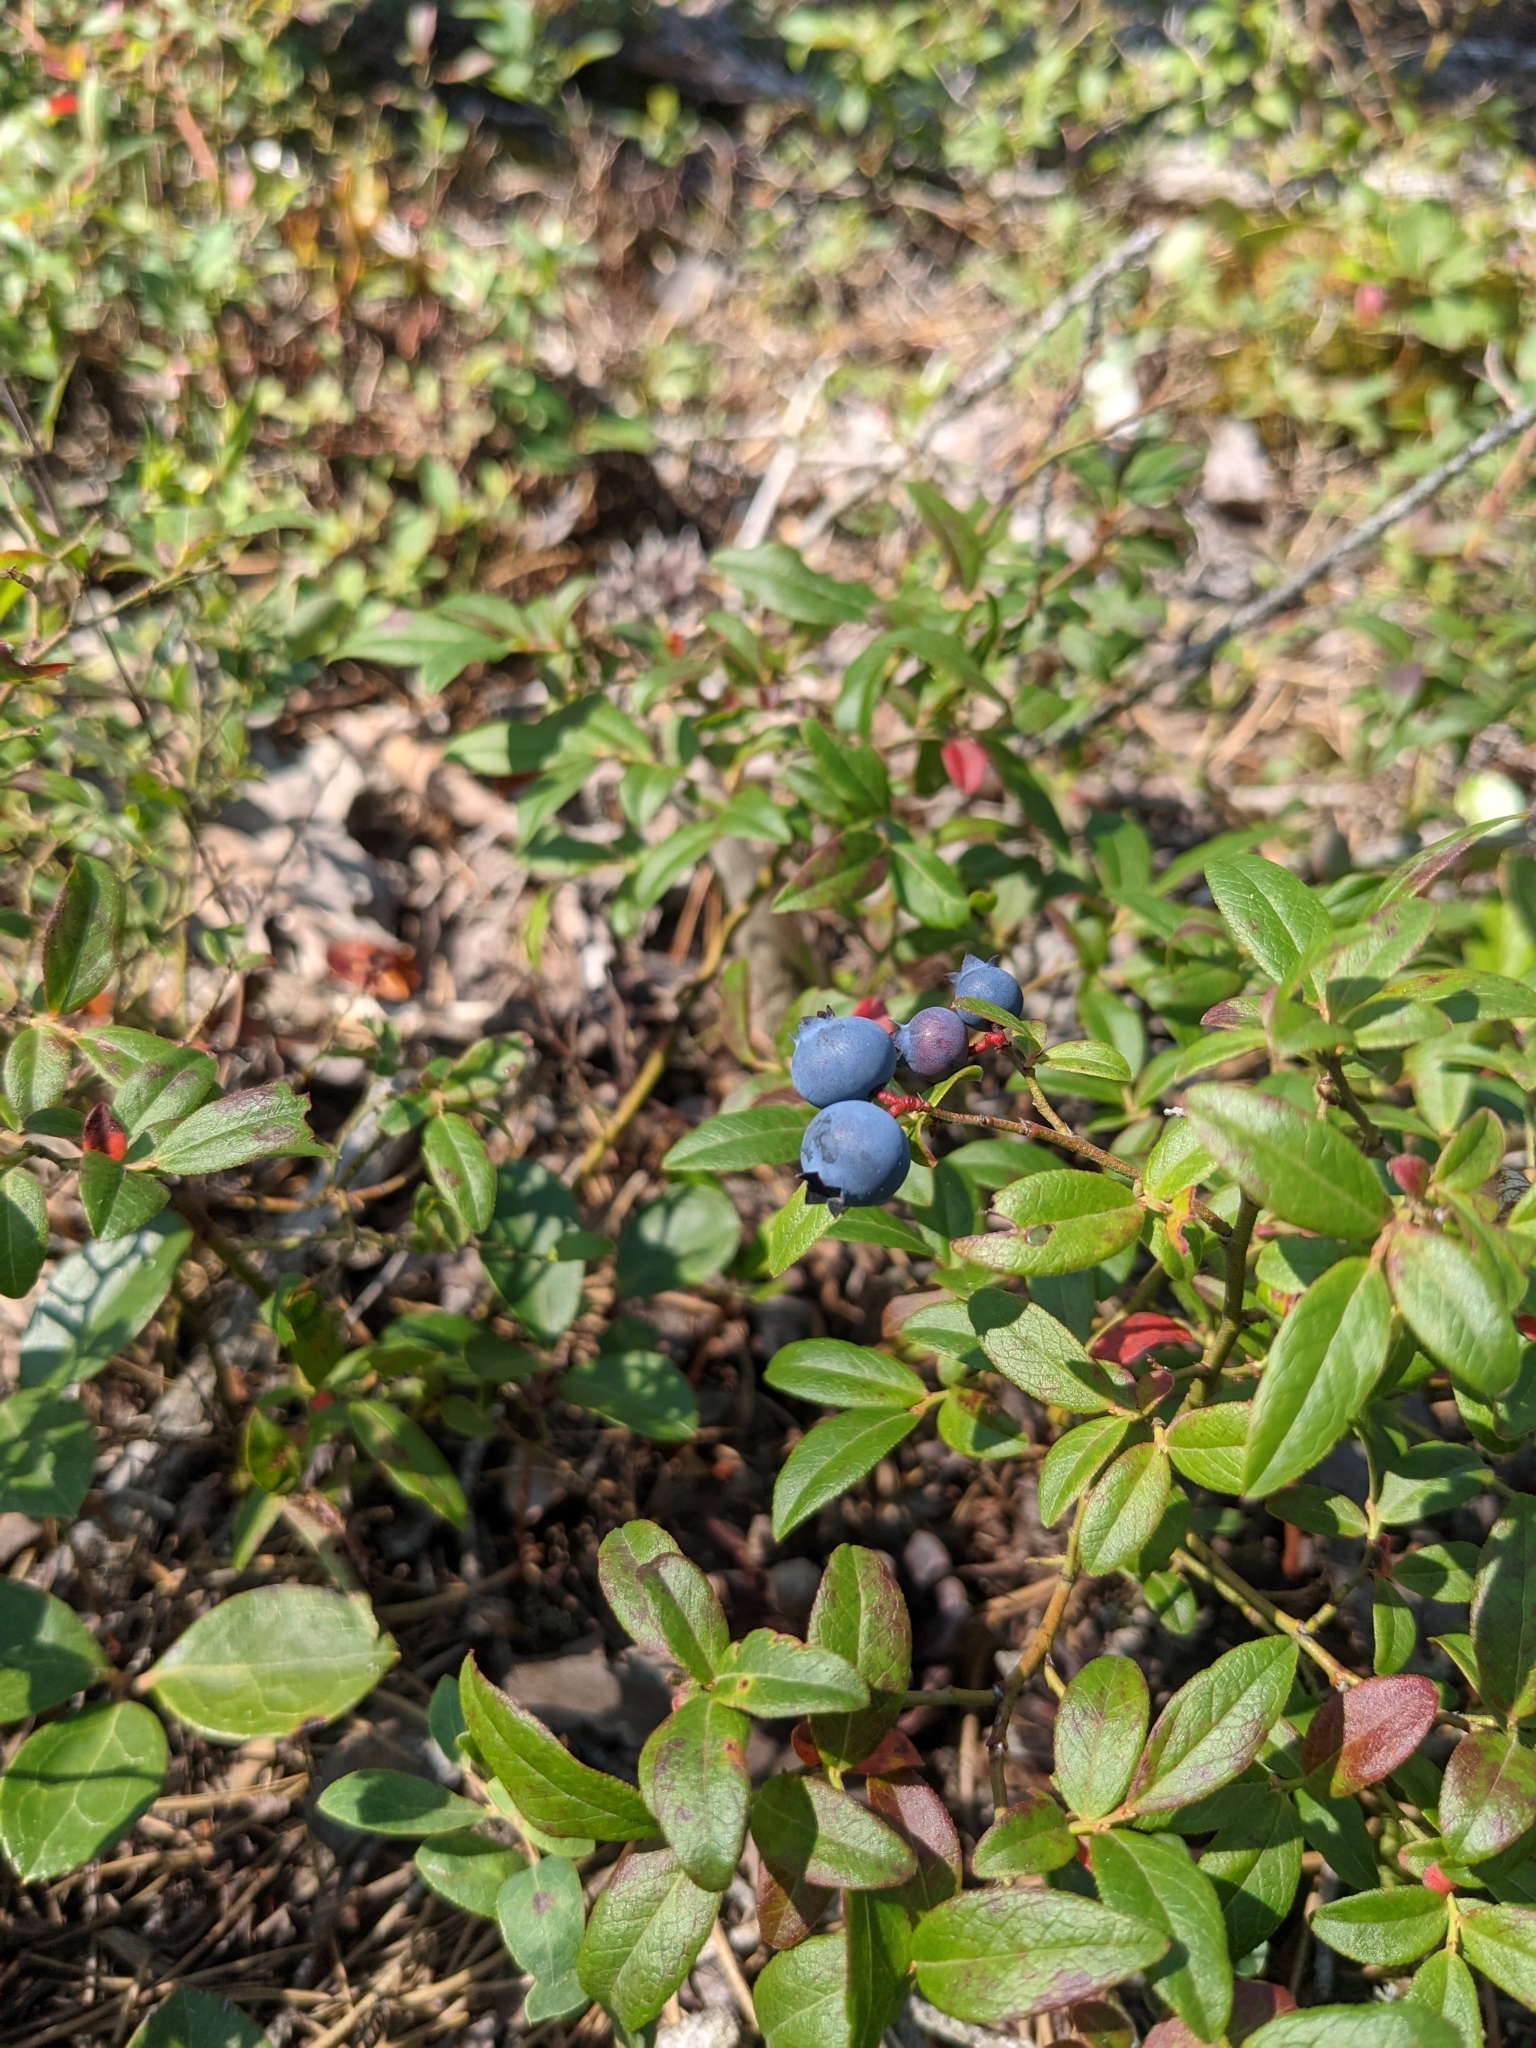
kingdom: Plantae
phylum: Tracheophyta
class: Magnoliopsida
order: Ericales
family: Ericaceae
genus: Vaccinium
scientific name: Vaccinium angustifolium
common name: Early lowbush blueberry
